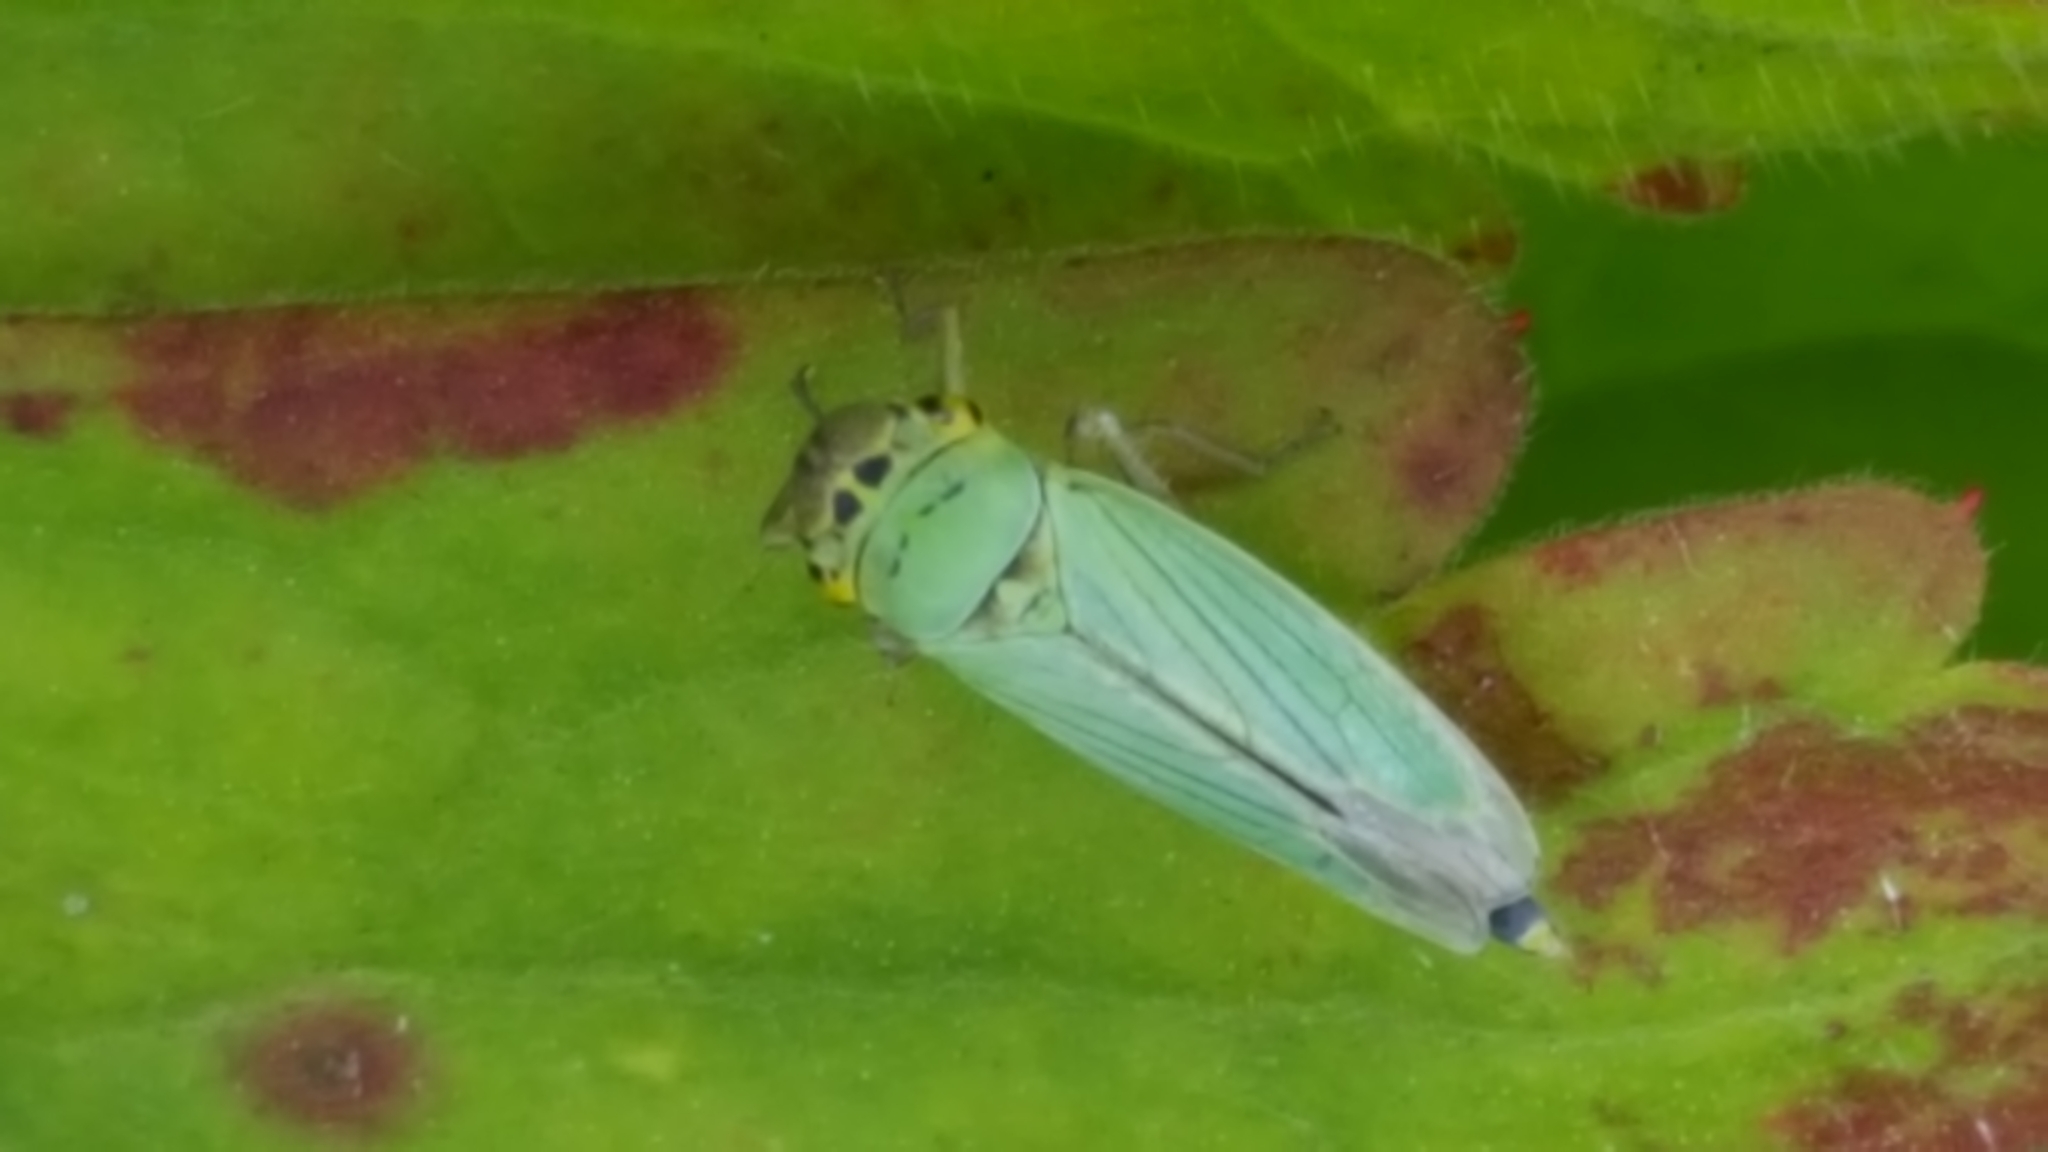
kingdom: Animalia
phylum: Arthropoda
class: Insecta
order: Hemiptera
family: Cicadellidae
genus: Cicadella
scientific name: Cicadella viridis
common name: Leafhopper
